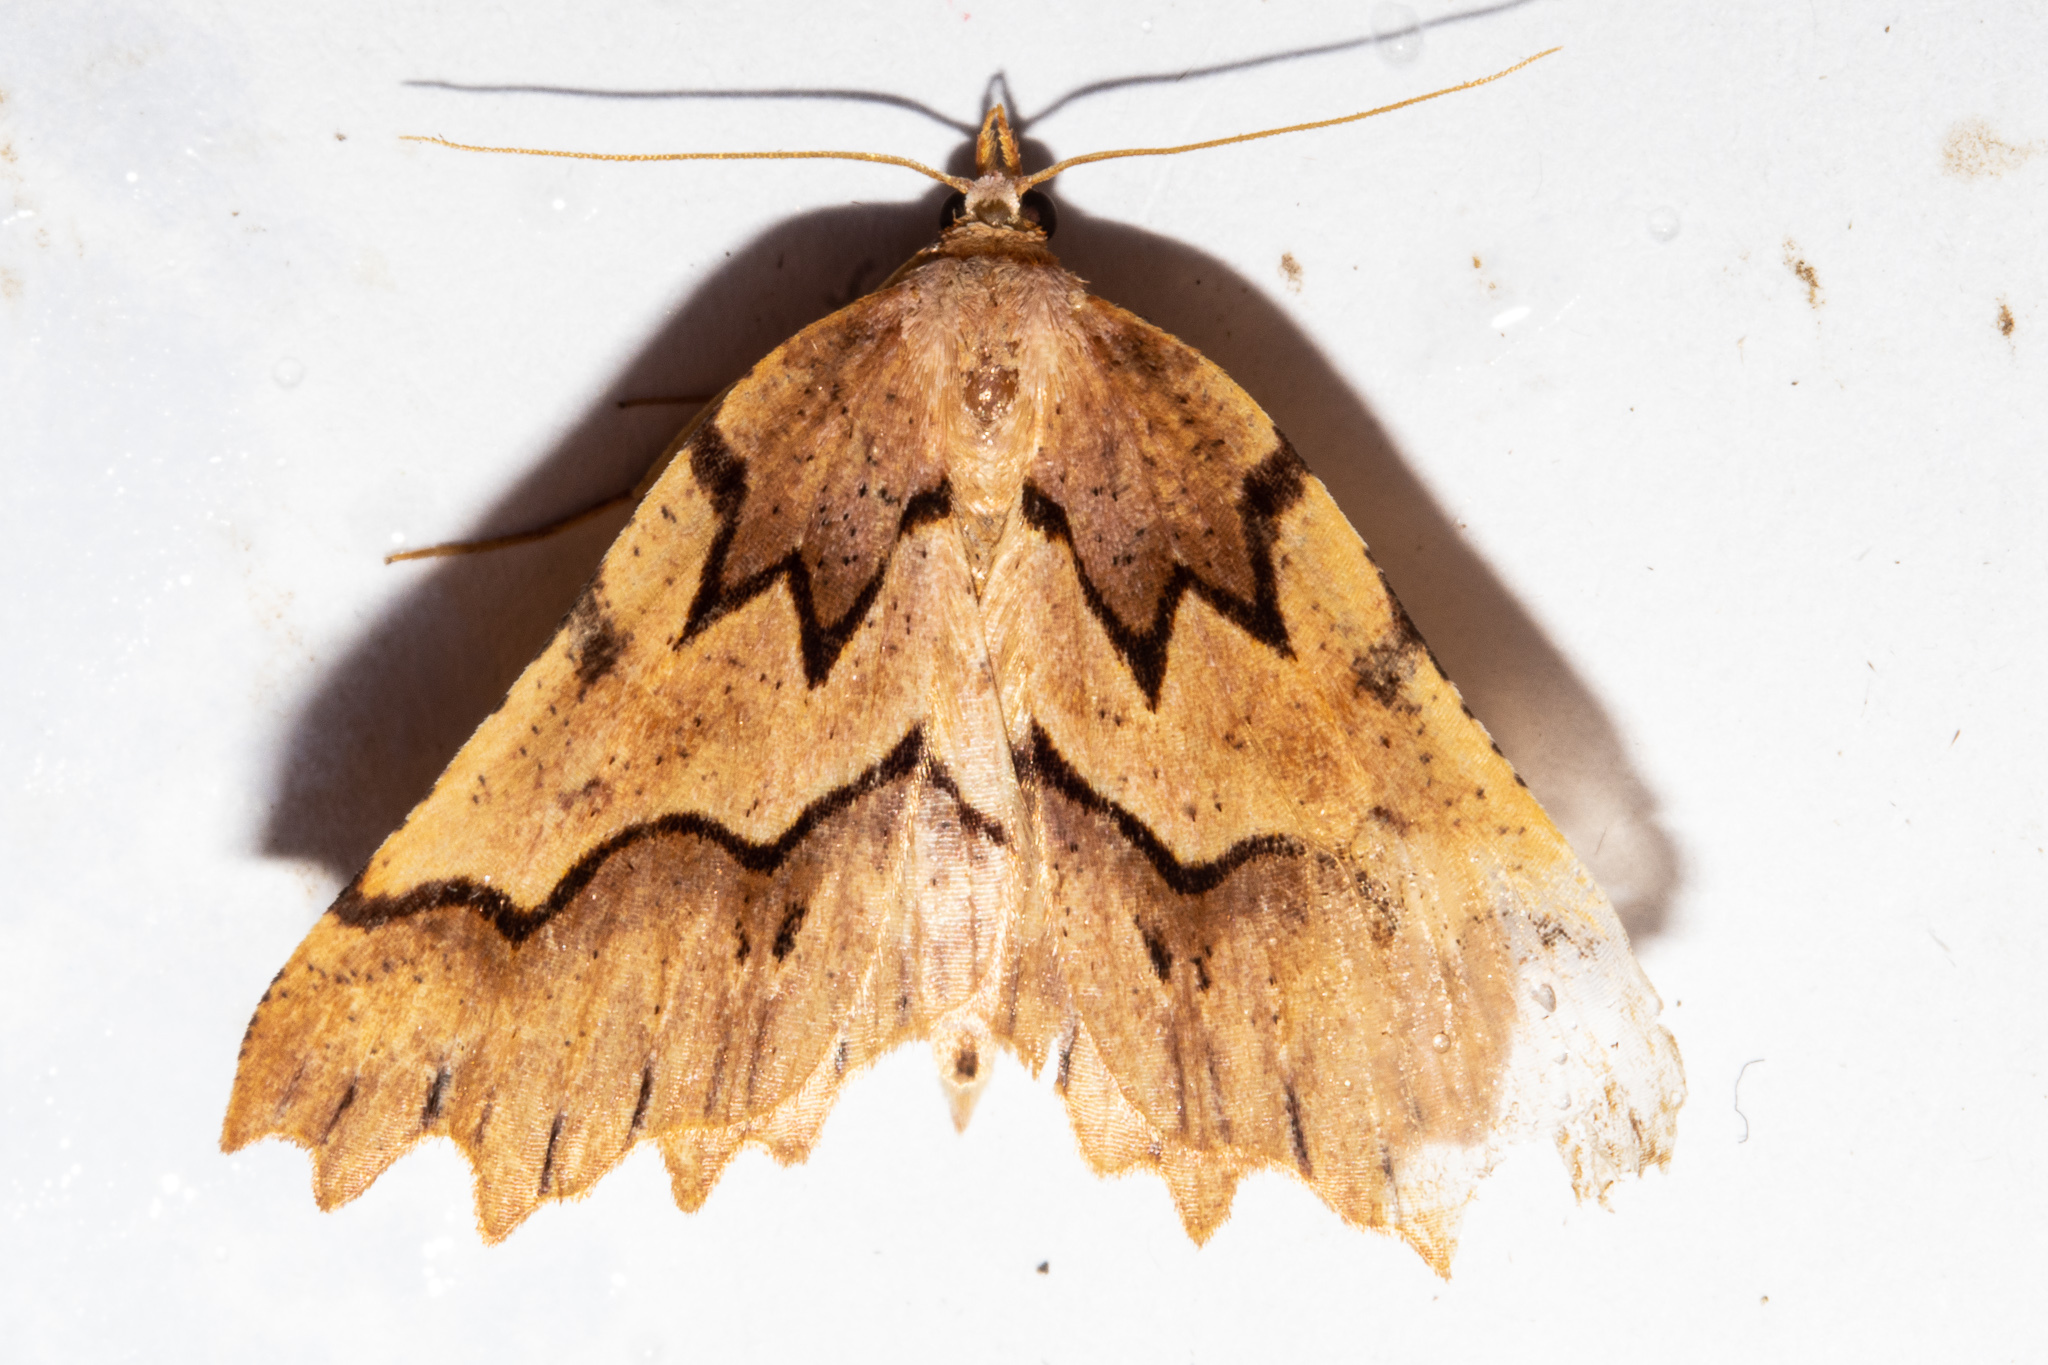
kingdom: Animalia
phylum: Arthropoda
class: Insecta
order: Lepidoptera
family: Geometridae
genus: Ischalis
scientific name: Ischalis fortinata
